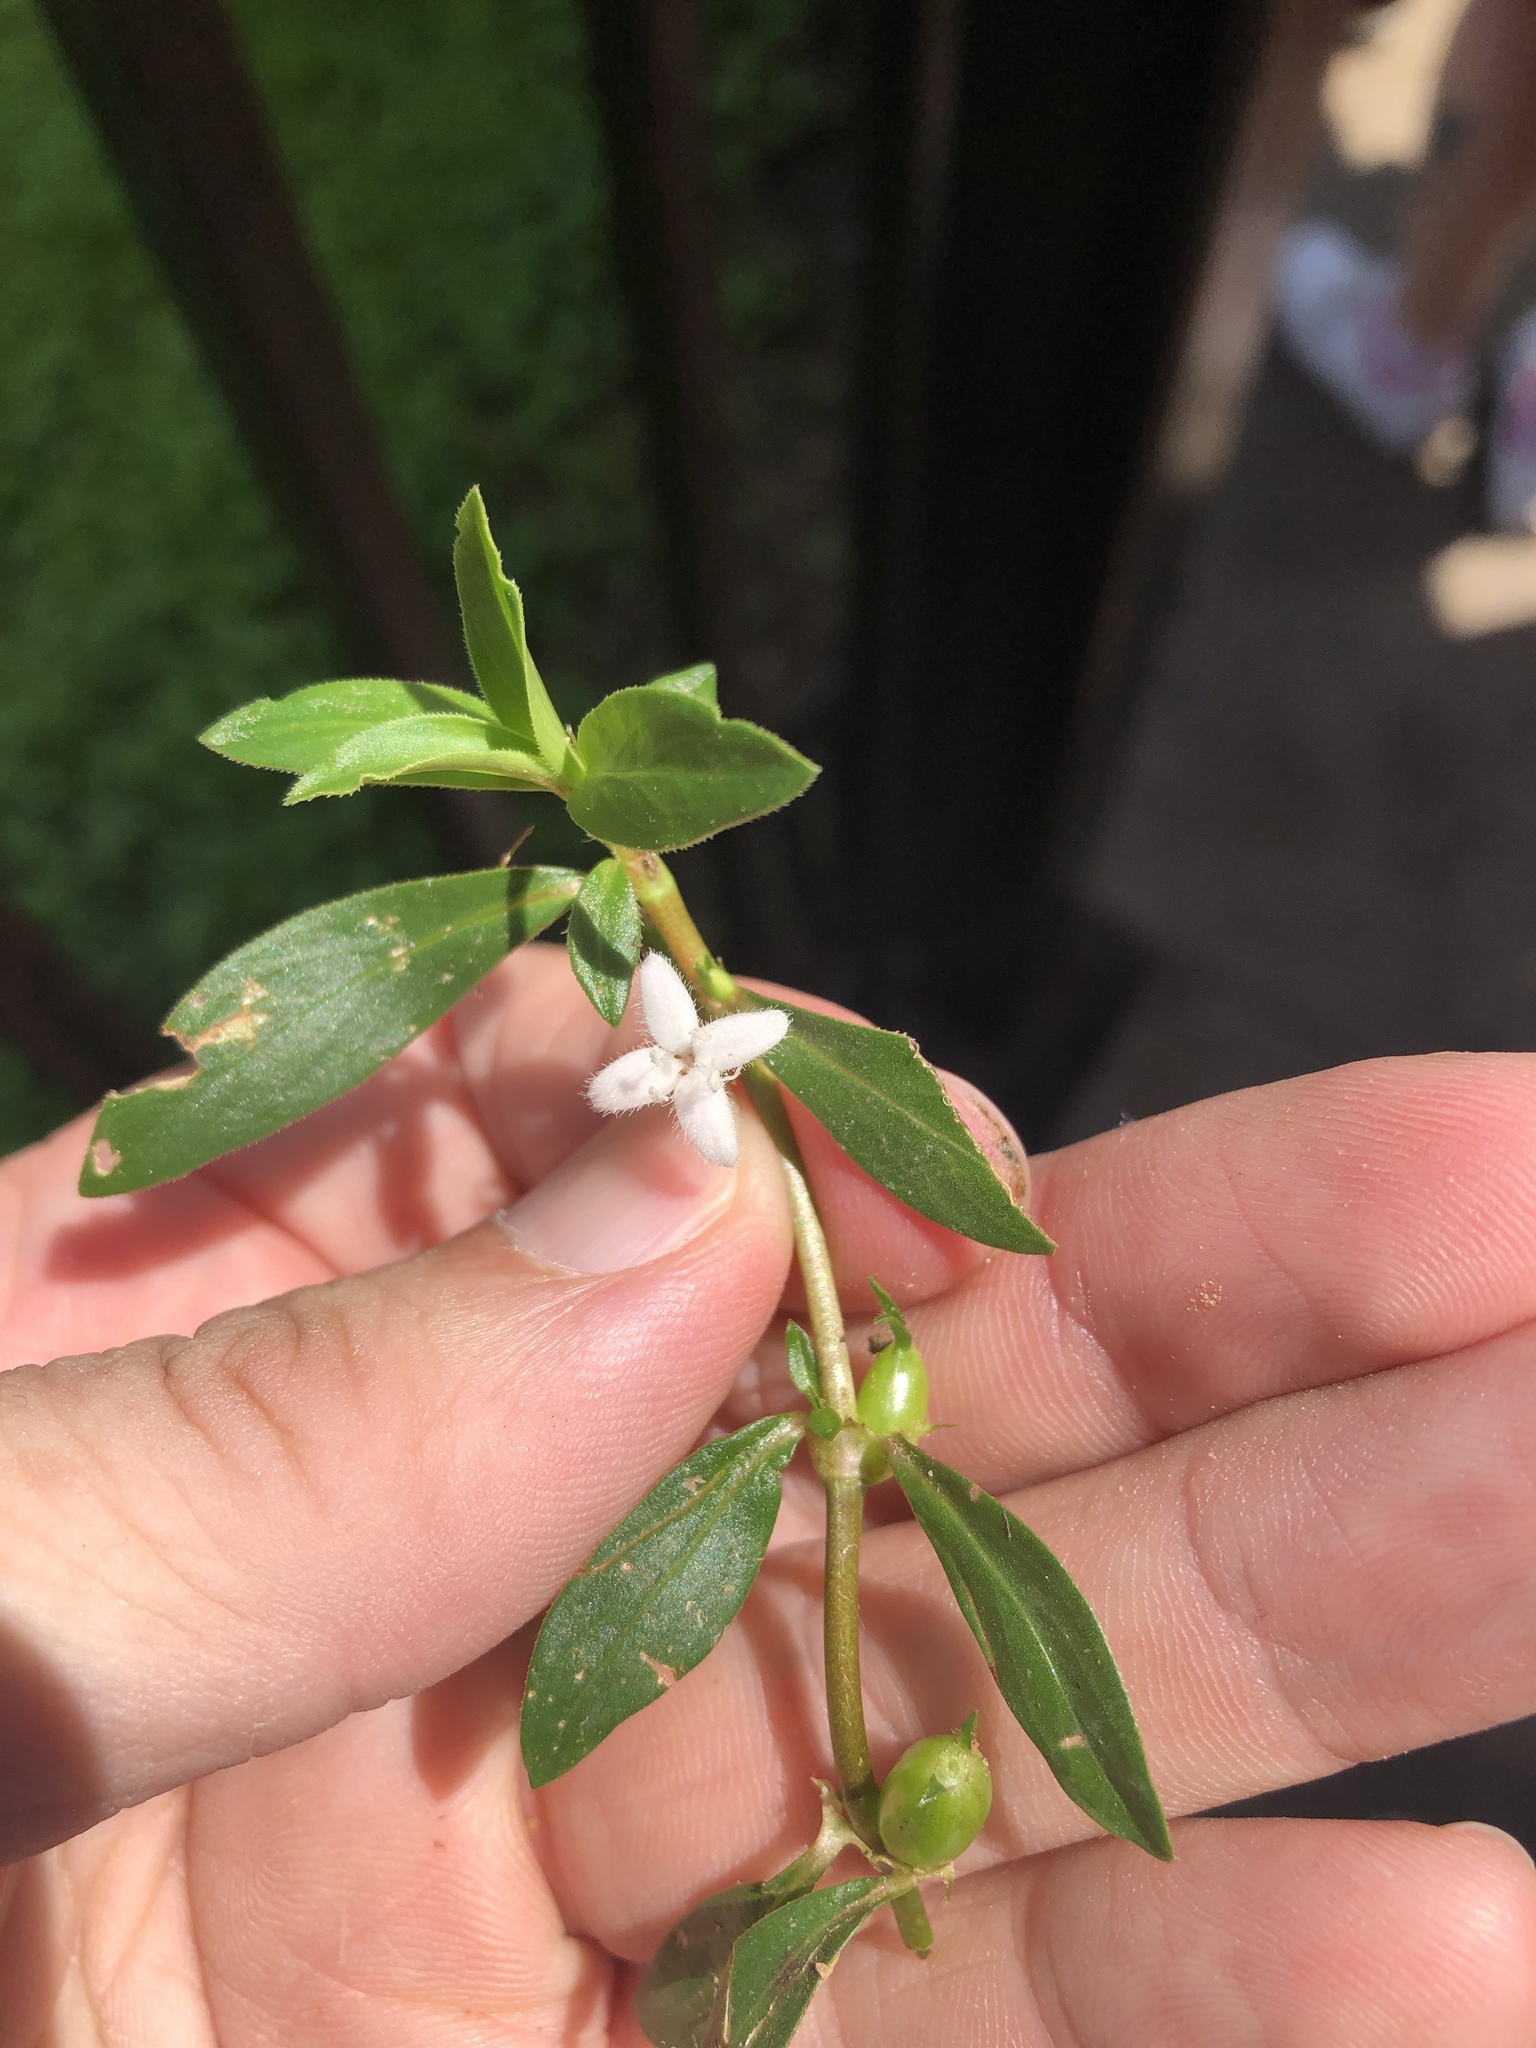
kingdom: Plantae
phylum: Tracheophyta
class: Magnoliopsida
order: Gentianales
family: Rubiaceae
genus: Diodia
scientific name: Diodia virginiana
